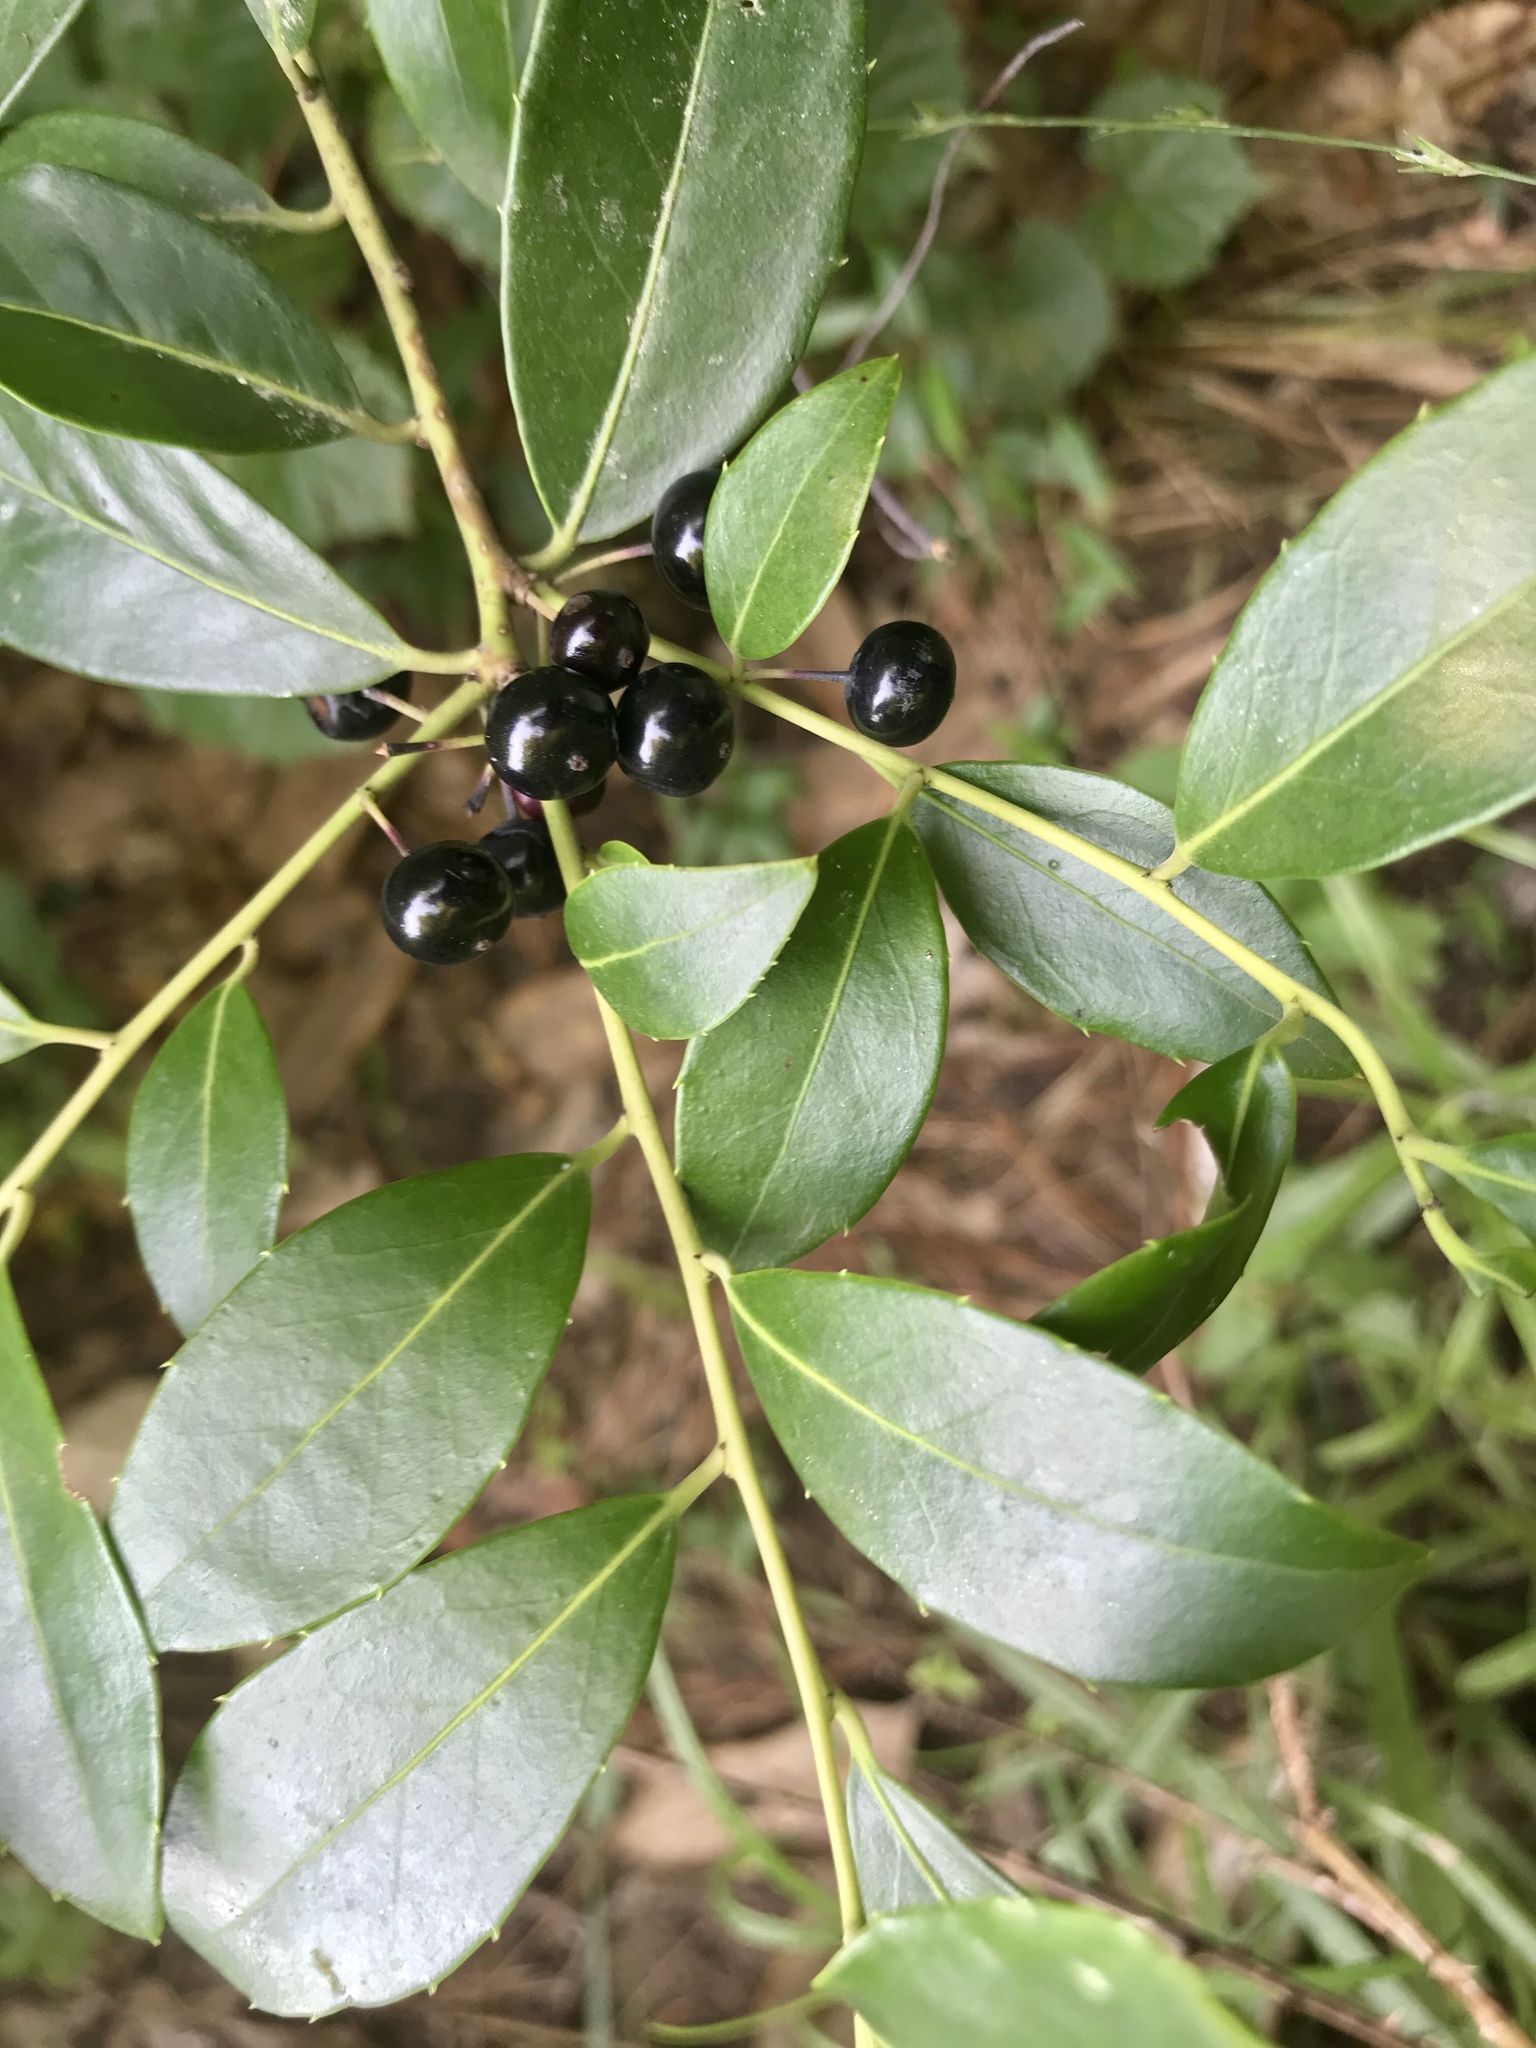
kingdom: Plantae
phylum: Tracheophyta
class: Magnoliopsida
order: Aquifoliales
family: Aquifoliaceae
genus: Ilex
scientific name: Ilex coriacea
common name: Sweet gallberry
